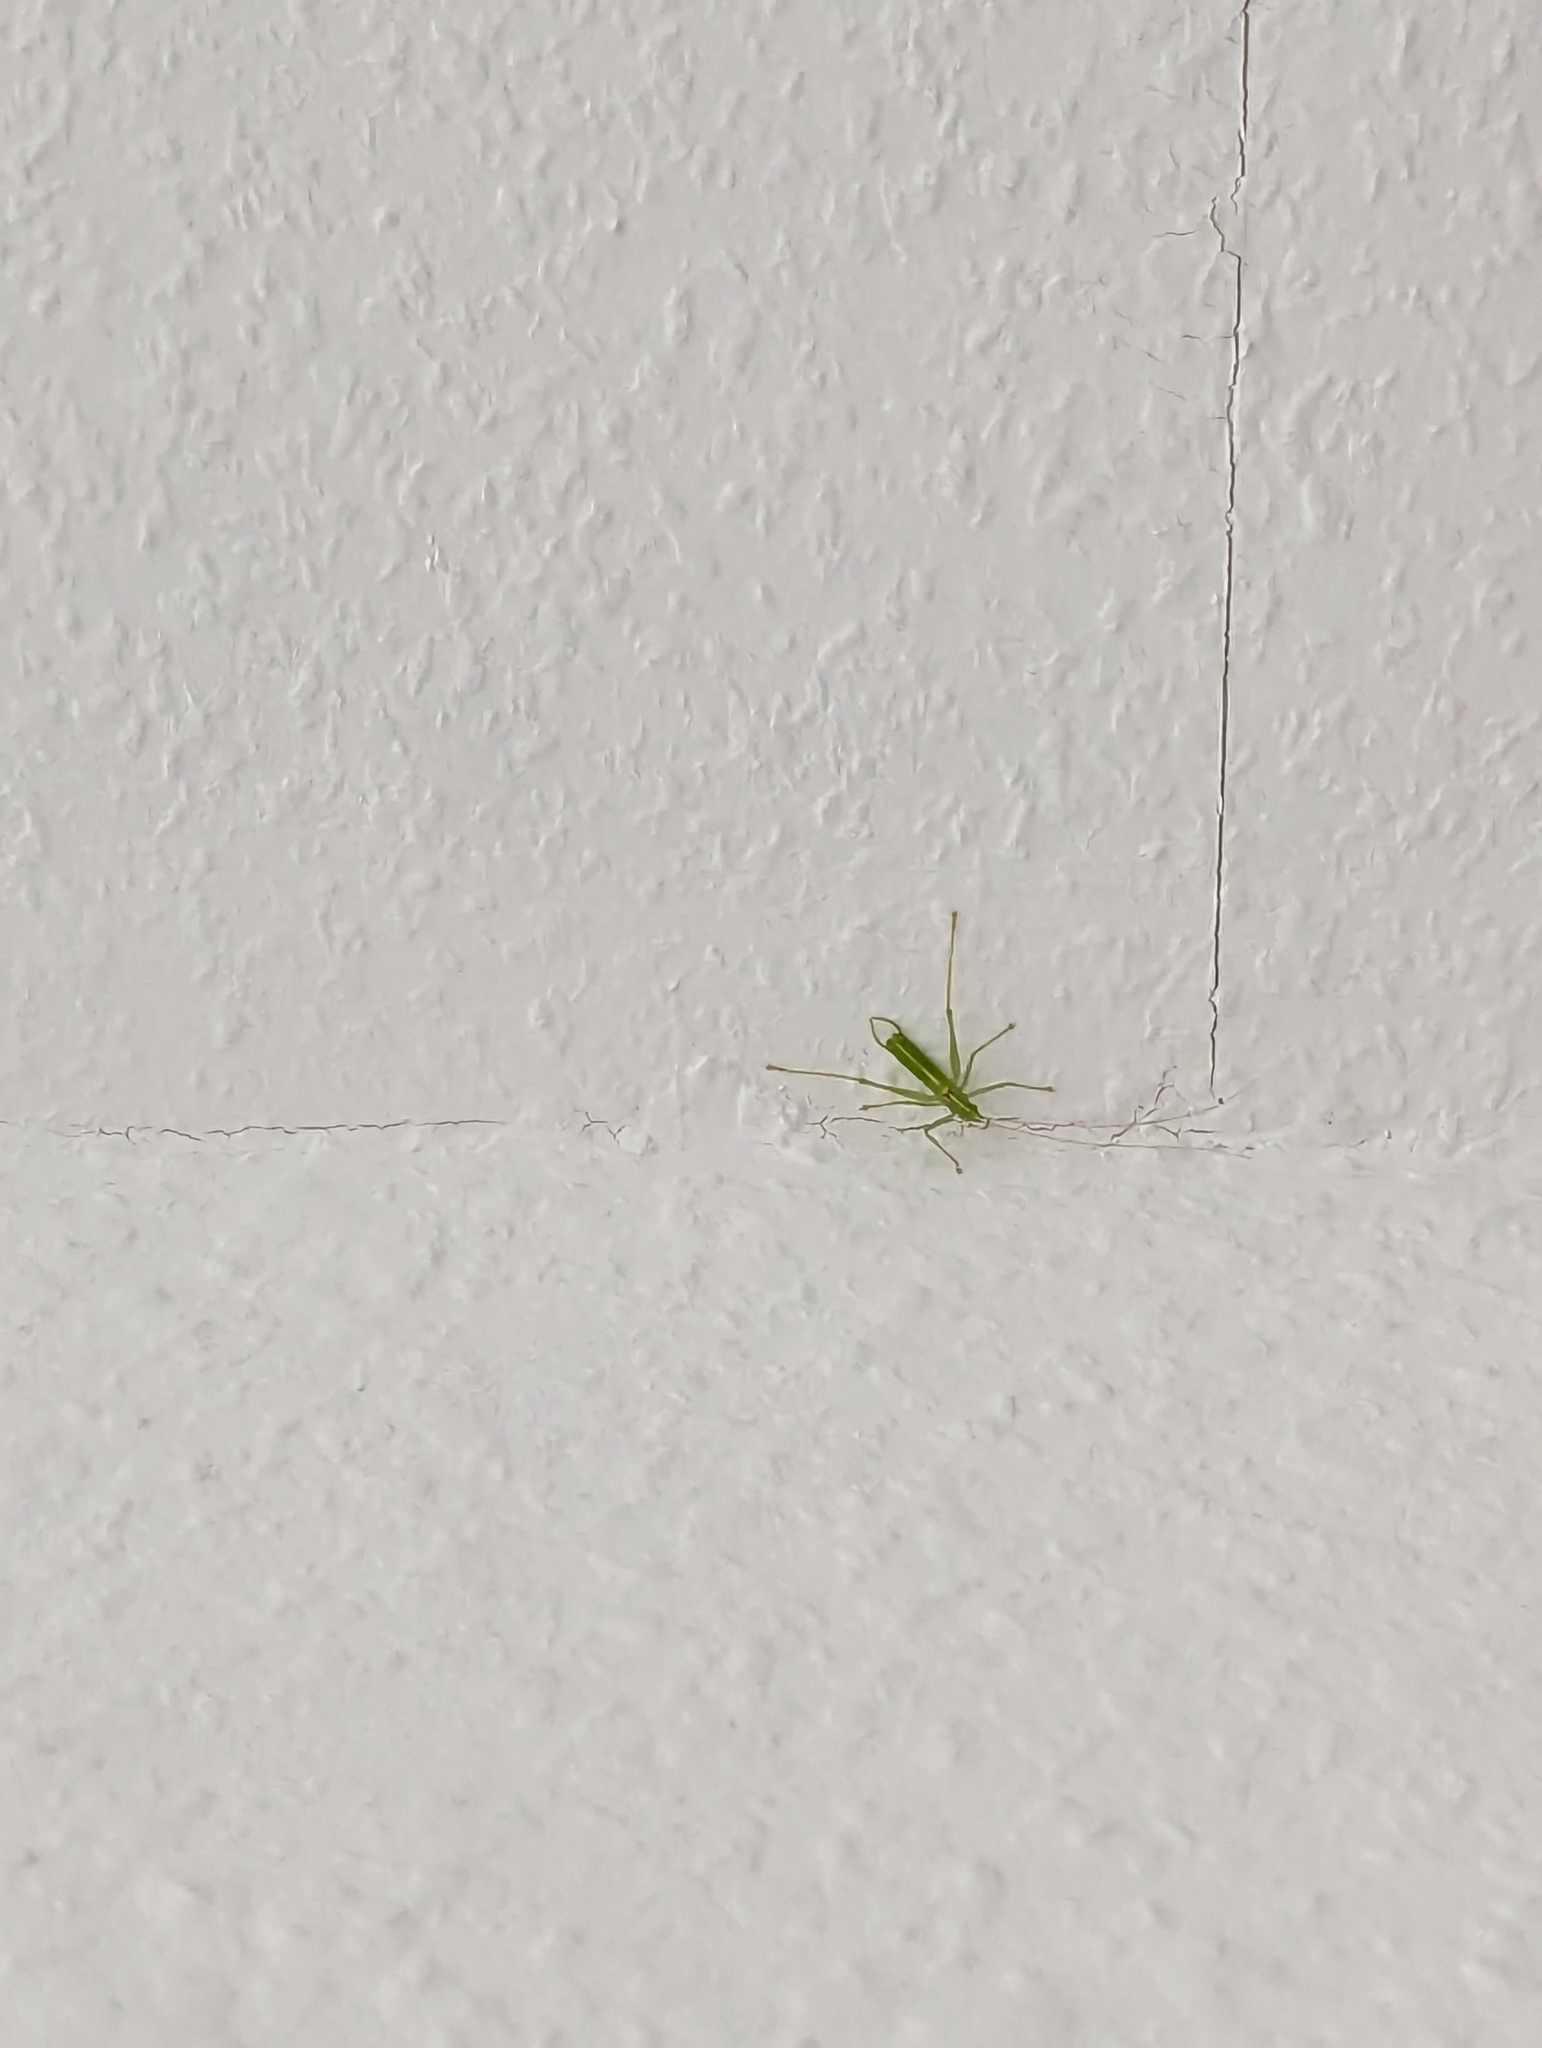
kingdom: Animalia
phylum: Arthropoda
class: Insecta
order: Orthoptera
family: Tettigoniidae
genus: Meconema
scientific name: Meconema meridionale
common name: Southern oak bush-cricket
